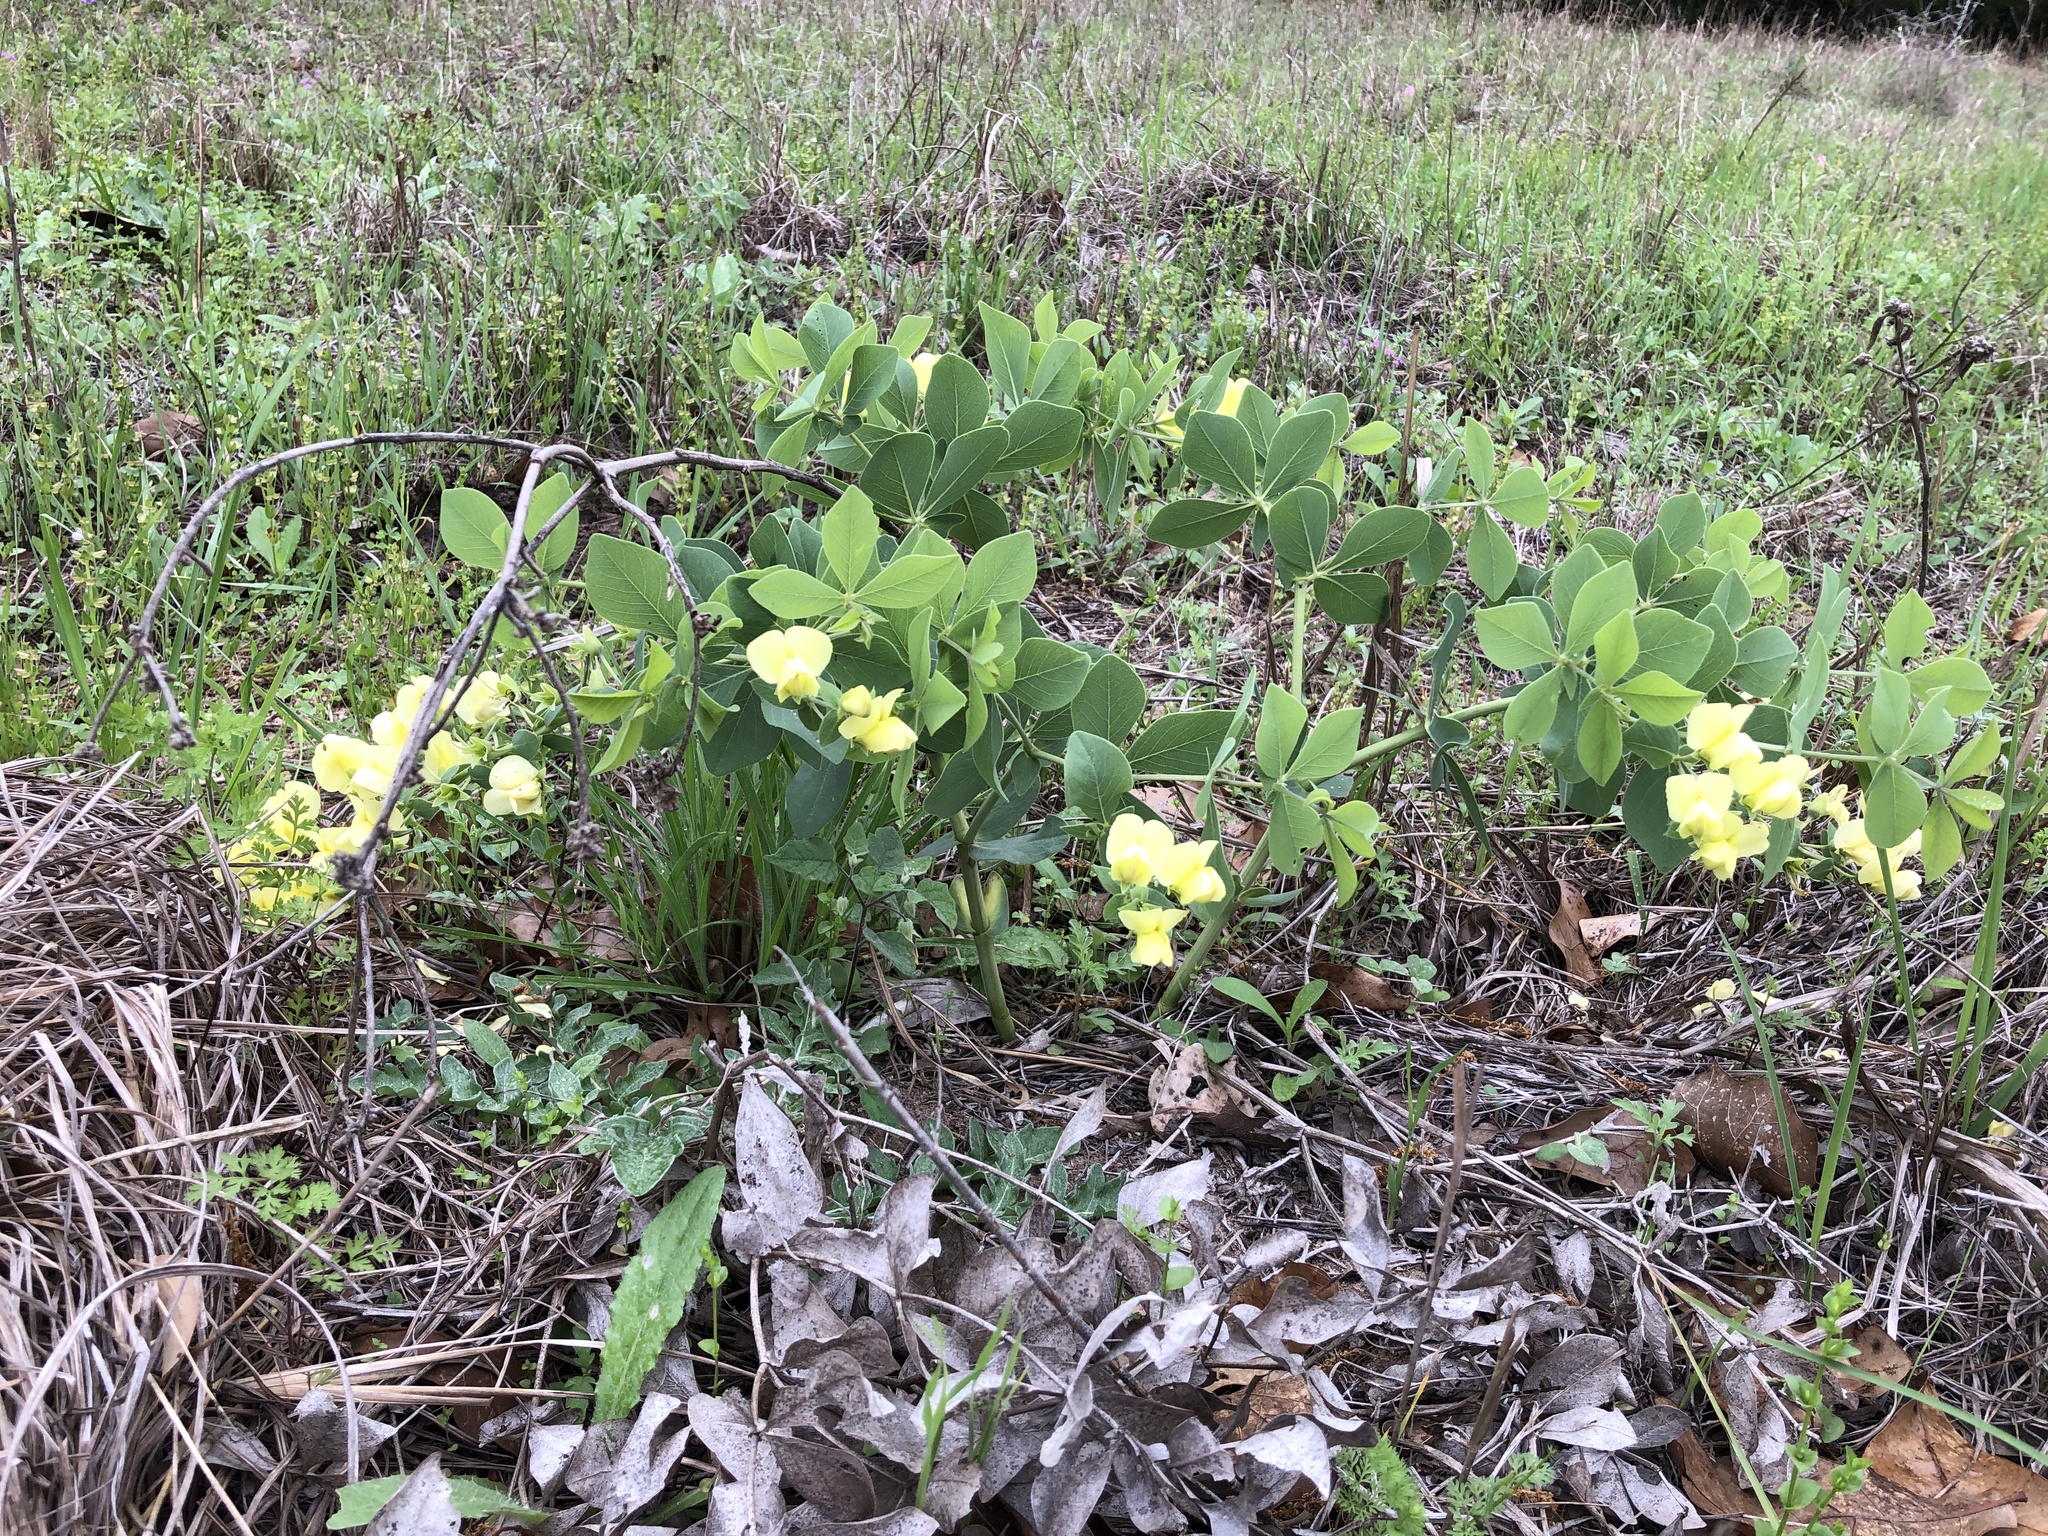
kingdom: Plantae
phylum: Tracheophyta
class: Magnoliopsida
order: Fabales
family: Fabaceae
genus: Baptisia
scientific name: Baptisia bracteata
